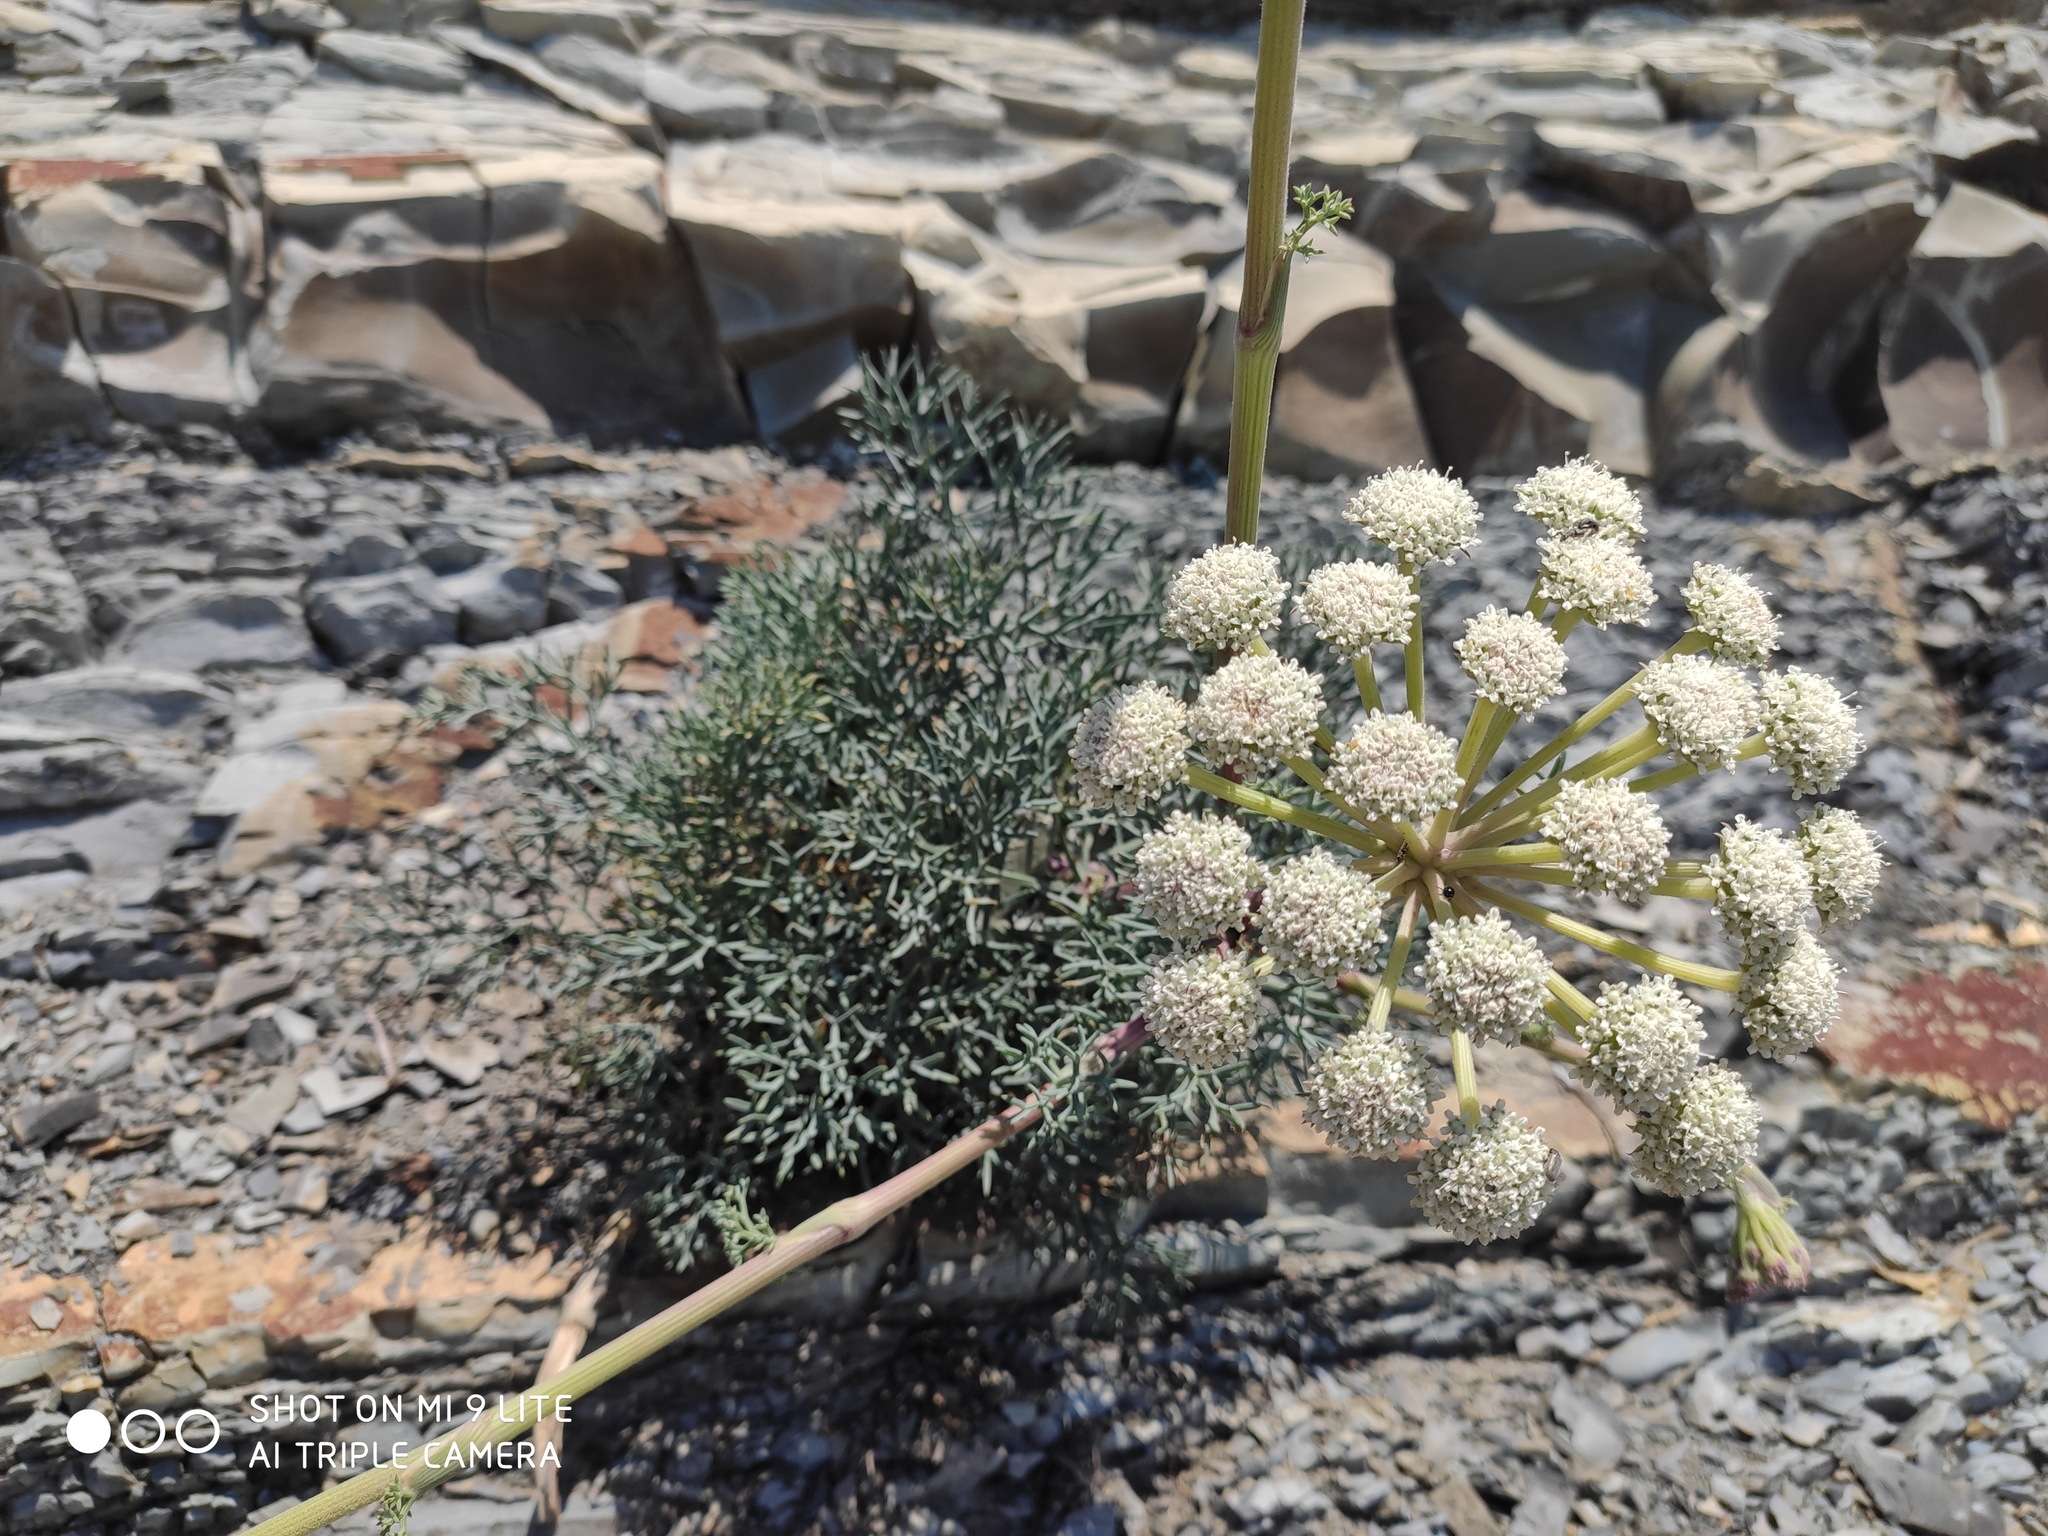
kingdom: Plantae
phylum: Tracheophyta
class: Magnoliopsida
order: Apiales
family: Apiaceae
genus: Seseli
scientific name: Seseli ponticum
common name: Pontic seseli
